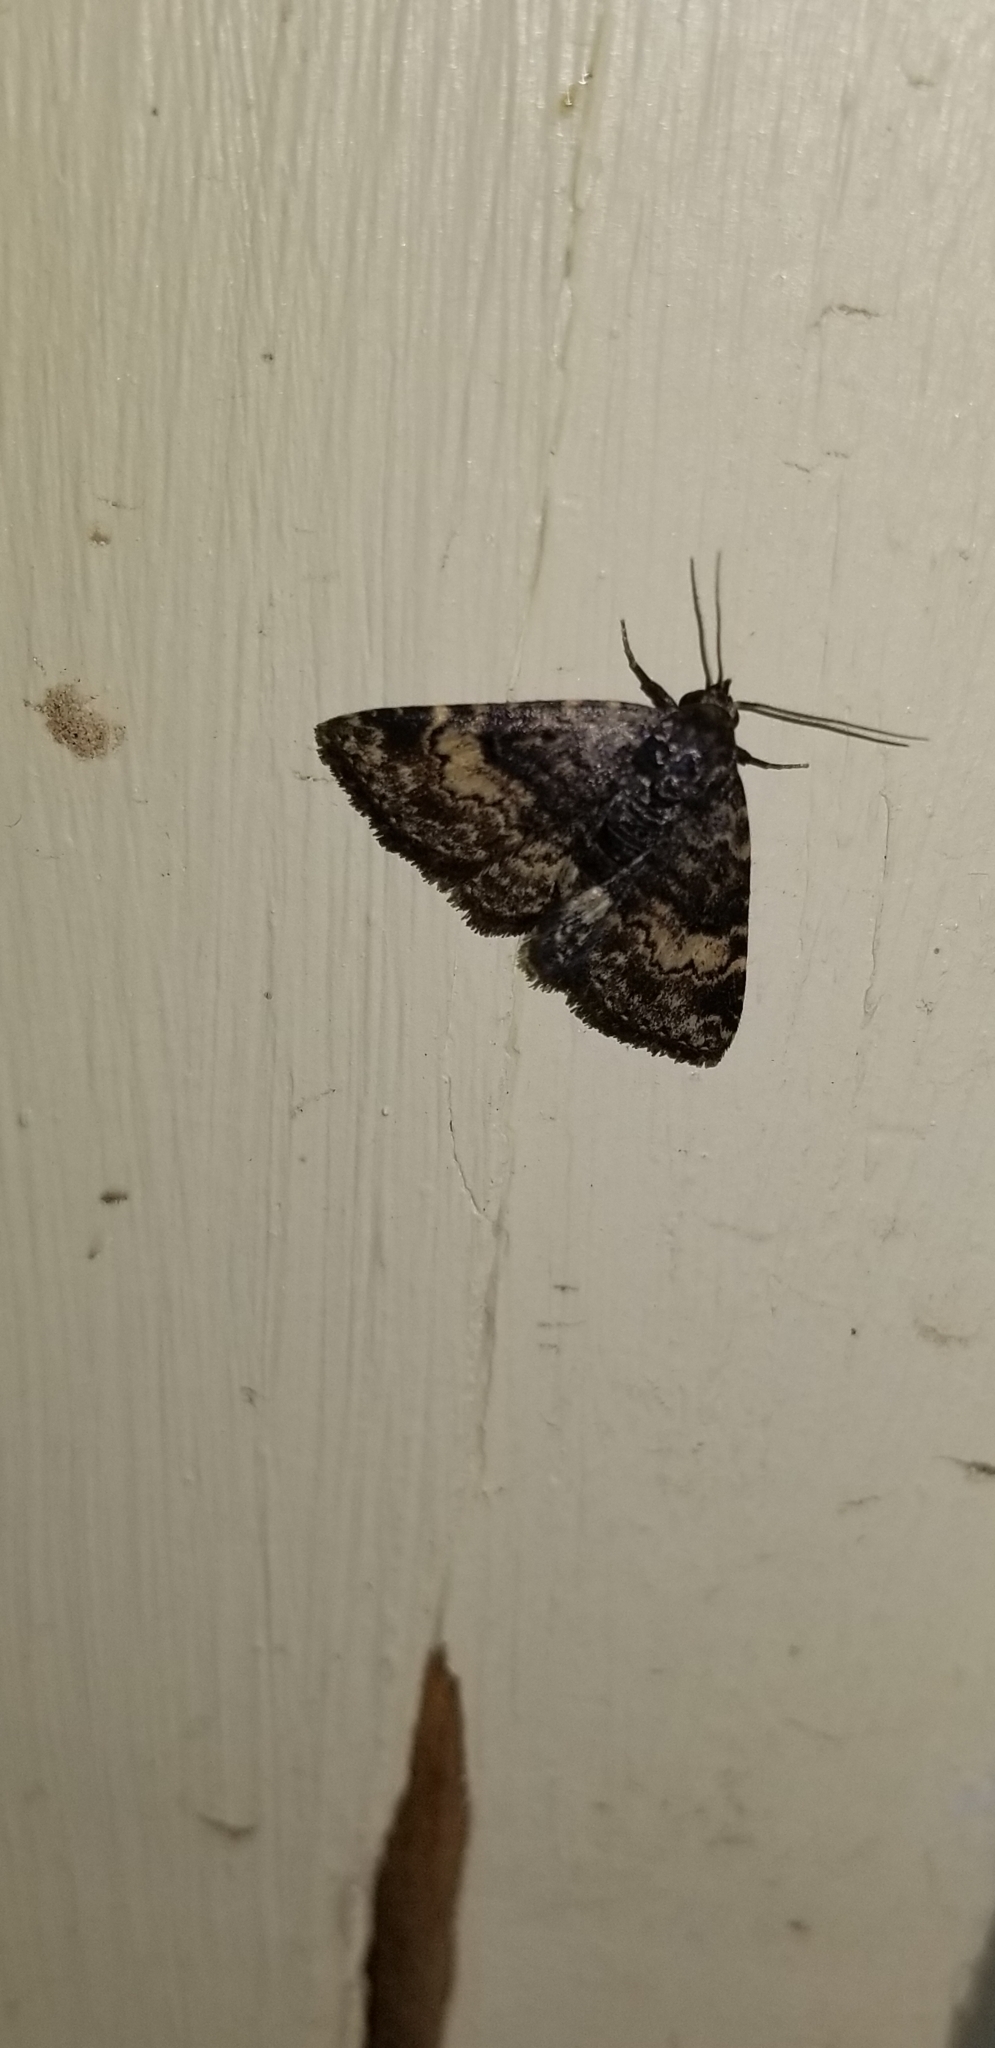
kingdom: Animalia
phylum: Arthropoda
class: Insecta
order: Lepidoptera
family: Erebidae
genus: Metalectra
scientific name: Metalectra diabolica
